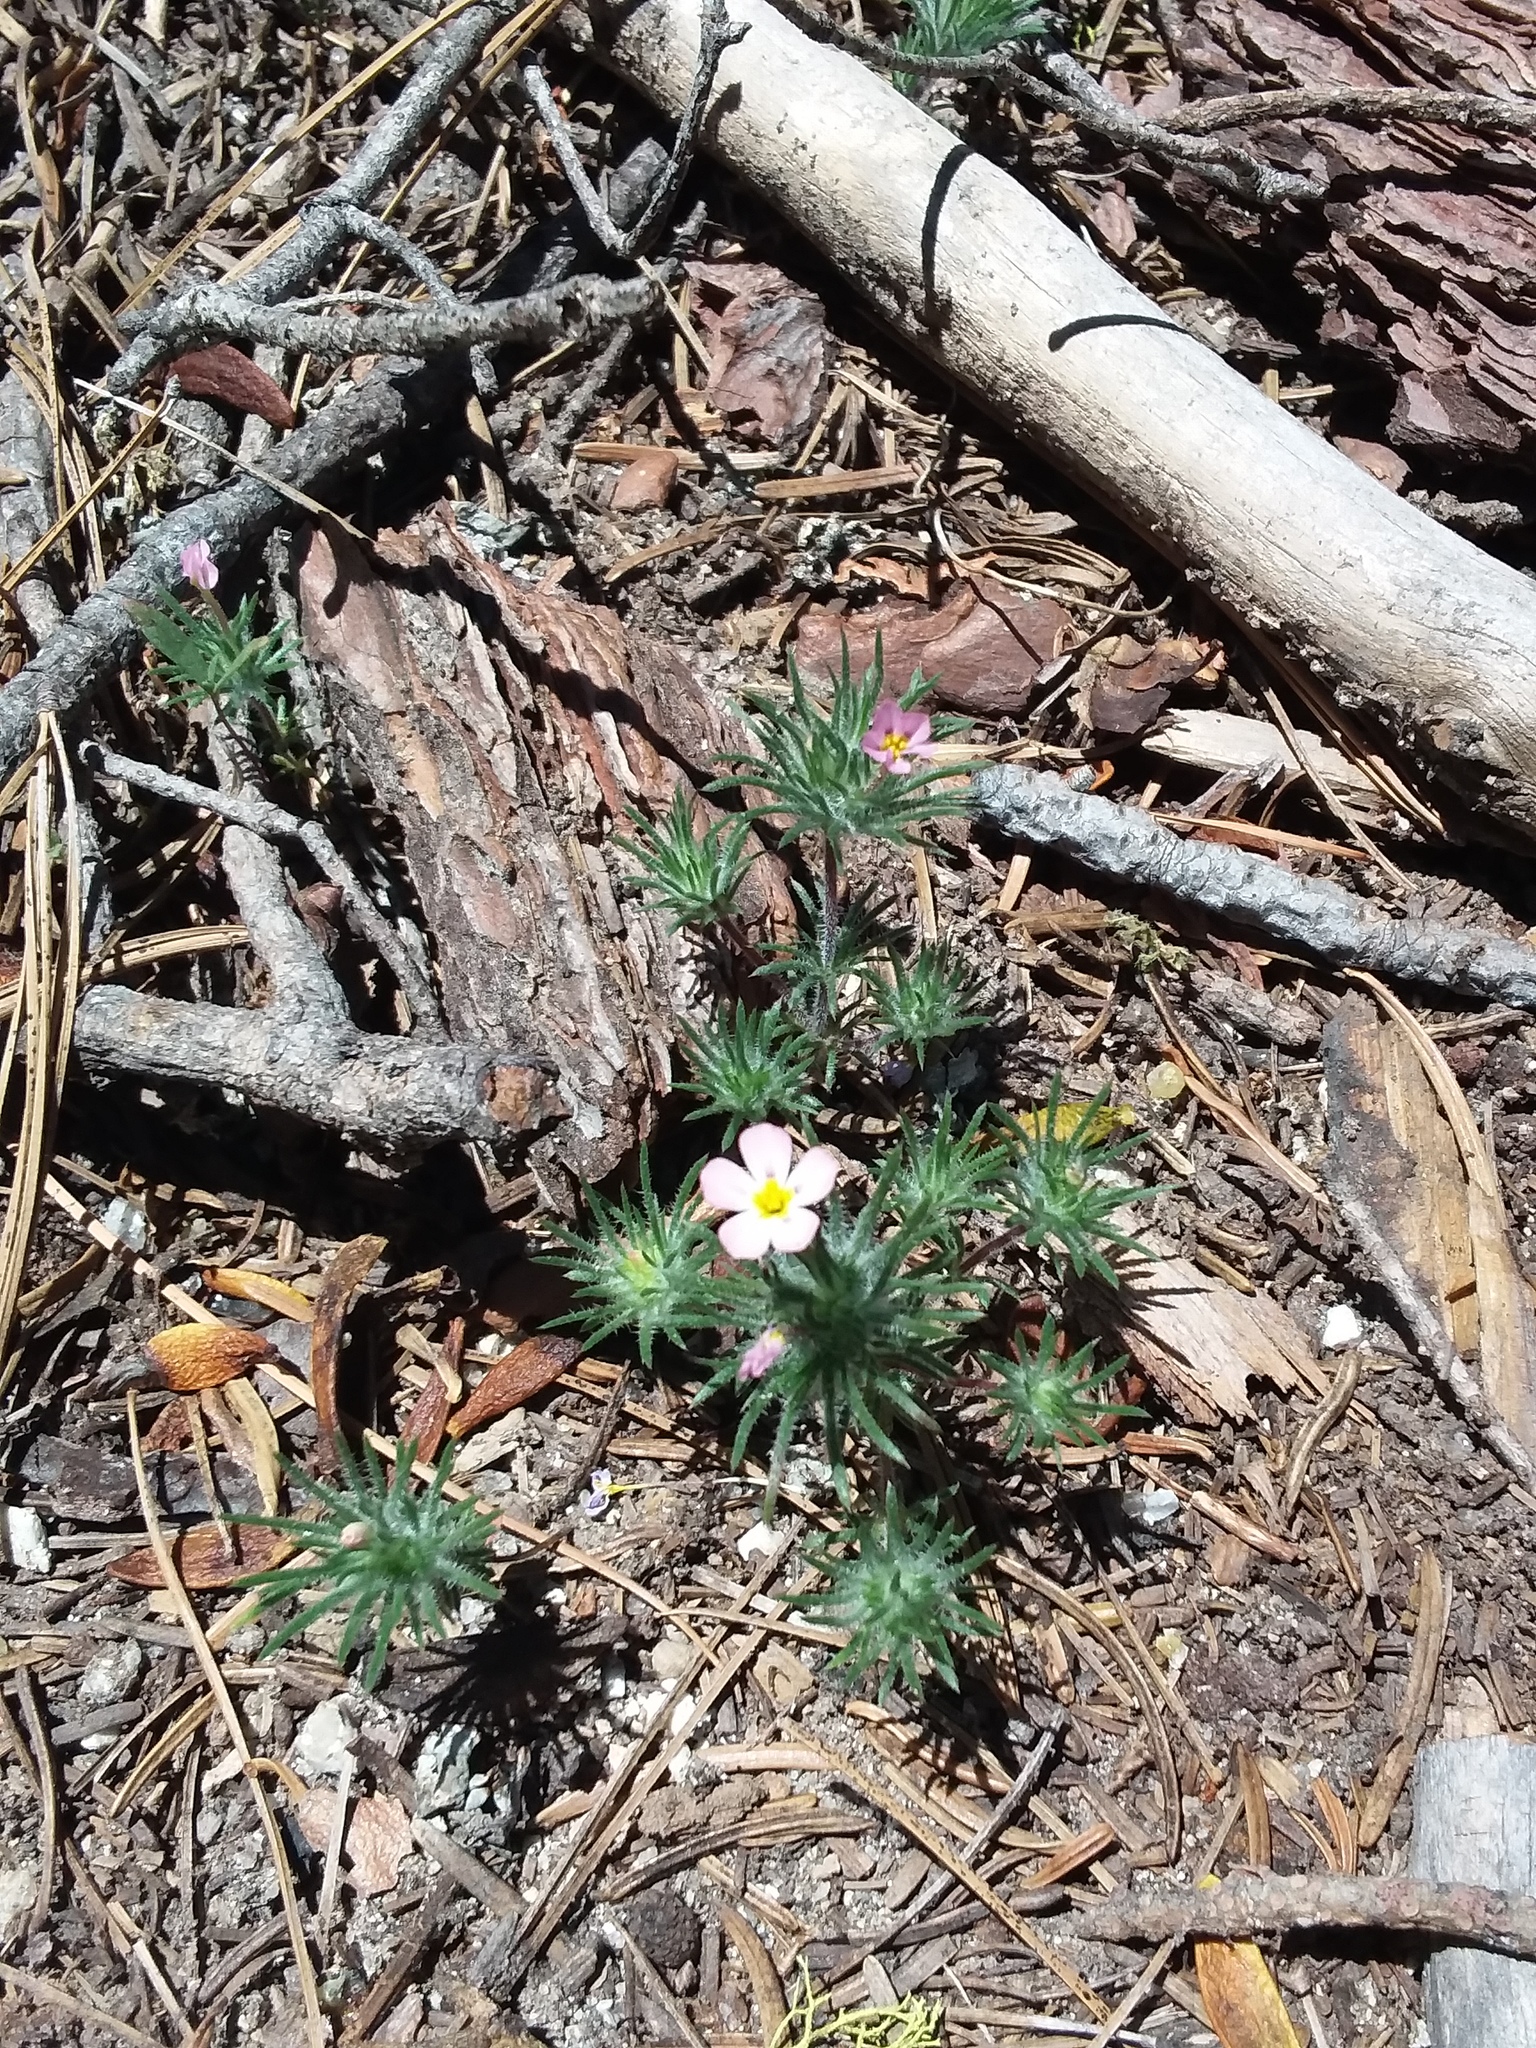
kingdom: Plantae
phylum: Tracheophyta
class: Magnoliopsida
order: Ericales
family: Polemoniaceae
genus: Leptosiphon
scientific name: Leptosiphon ciliatus
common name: Whiskerbrush
